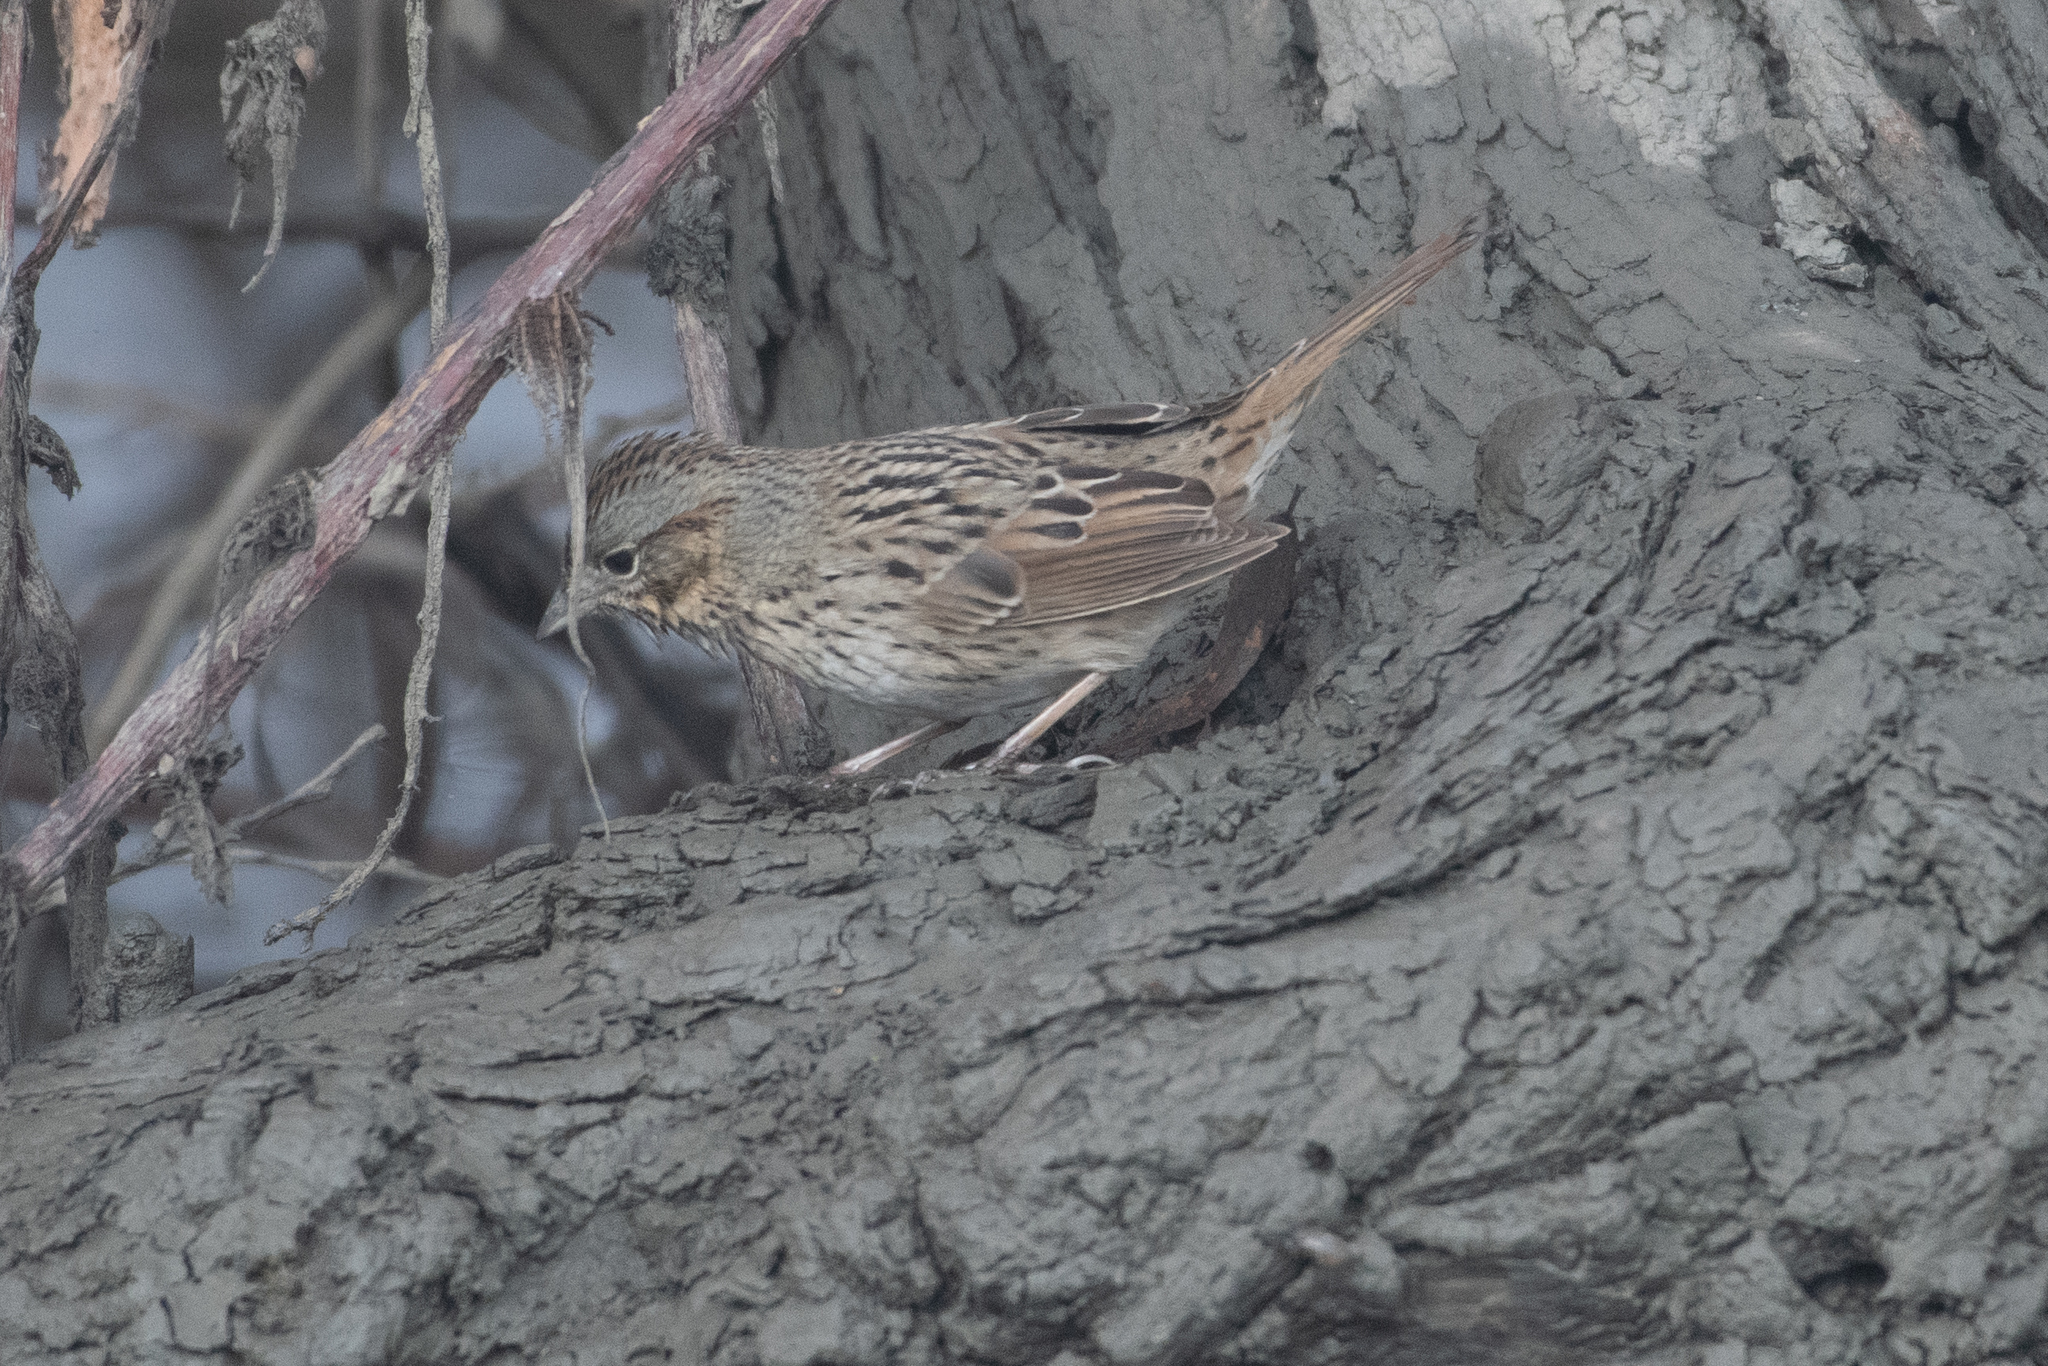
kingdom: Animalia
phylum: Chordata
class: Aves
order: Passeriformes
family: Passerellidae
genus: Melospiza
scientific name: Melospiza lincolnii
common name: Lincoln's sparrow
